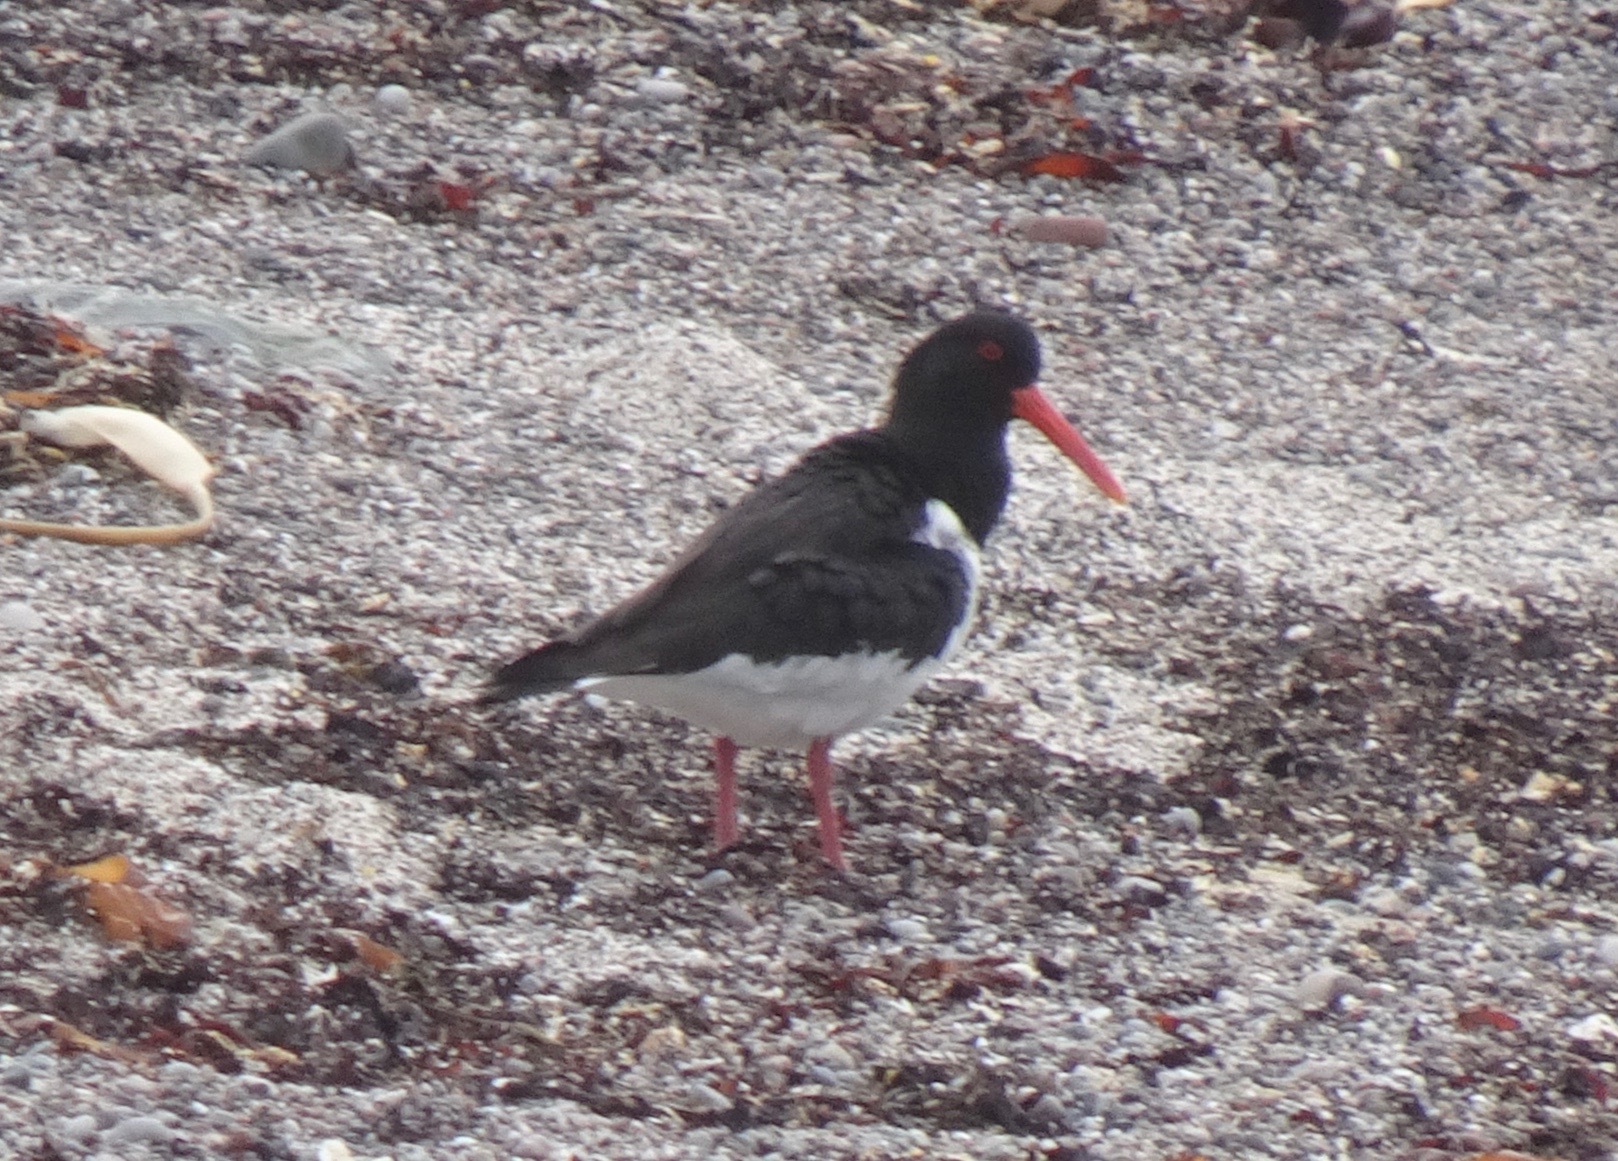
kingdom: Animalia
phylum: Chordata
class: Aves
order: Charadriiformes
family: Haematopodidae
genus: Haematopus
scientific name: Haematopus ostralegus
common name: Eurasian oystercatcher
